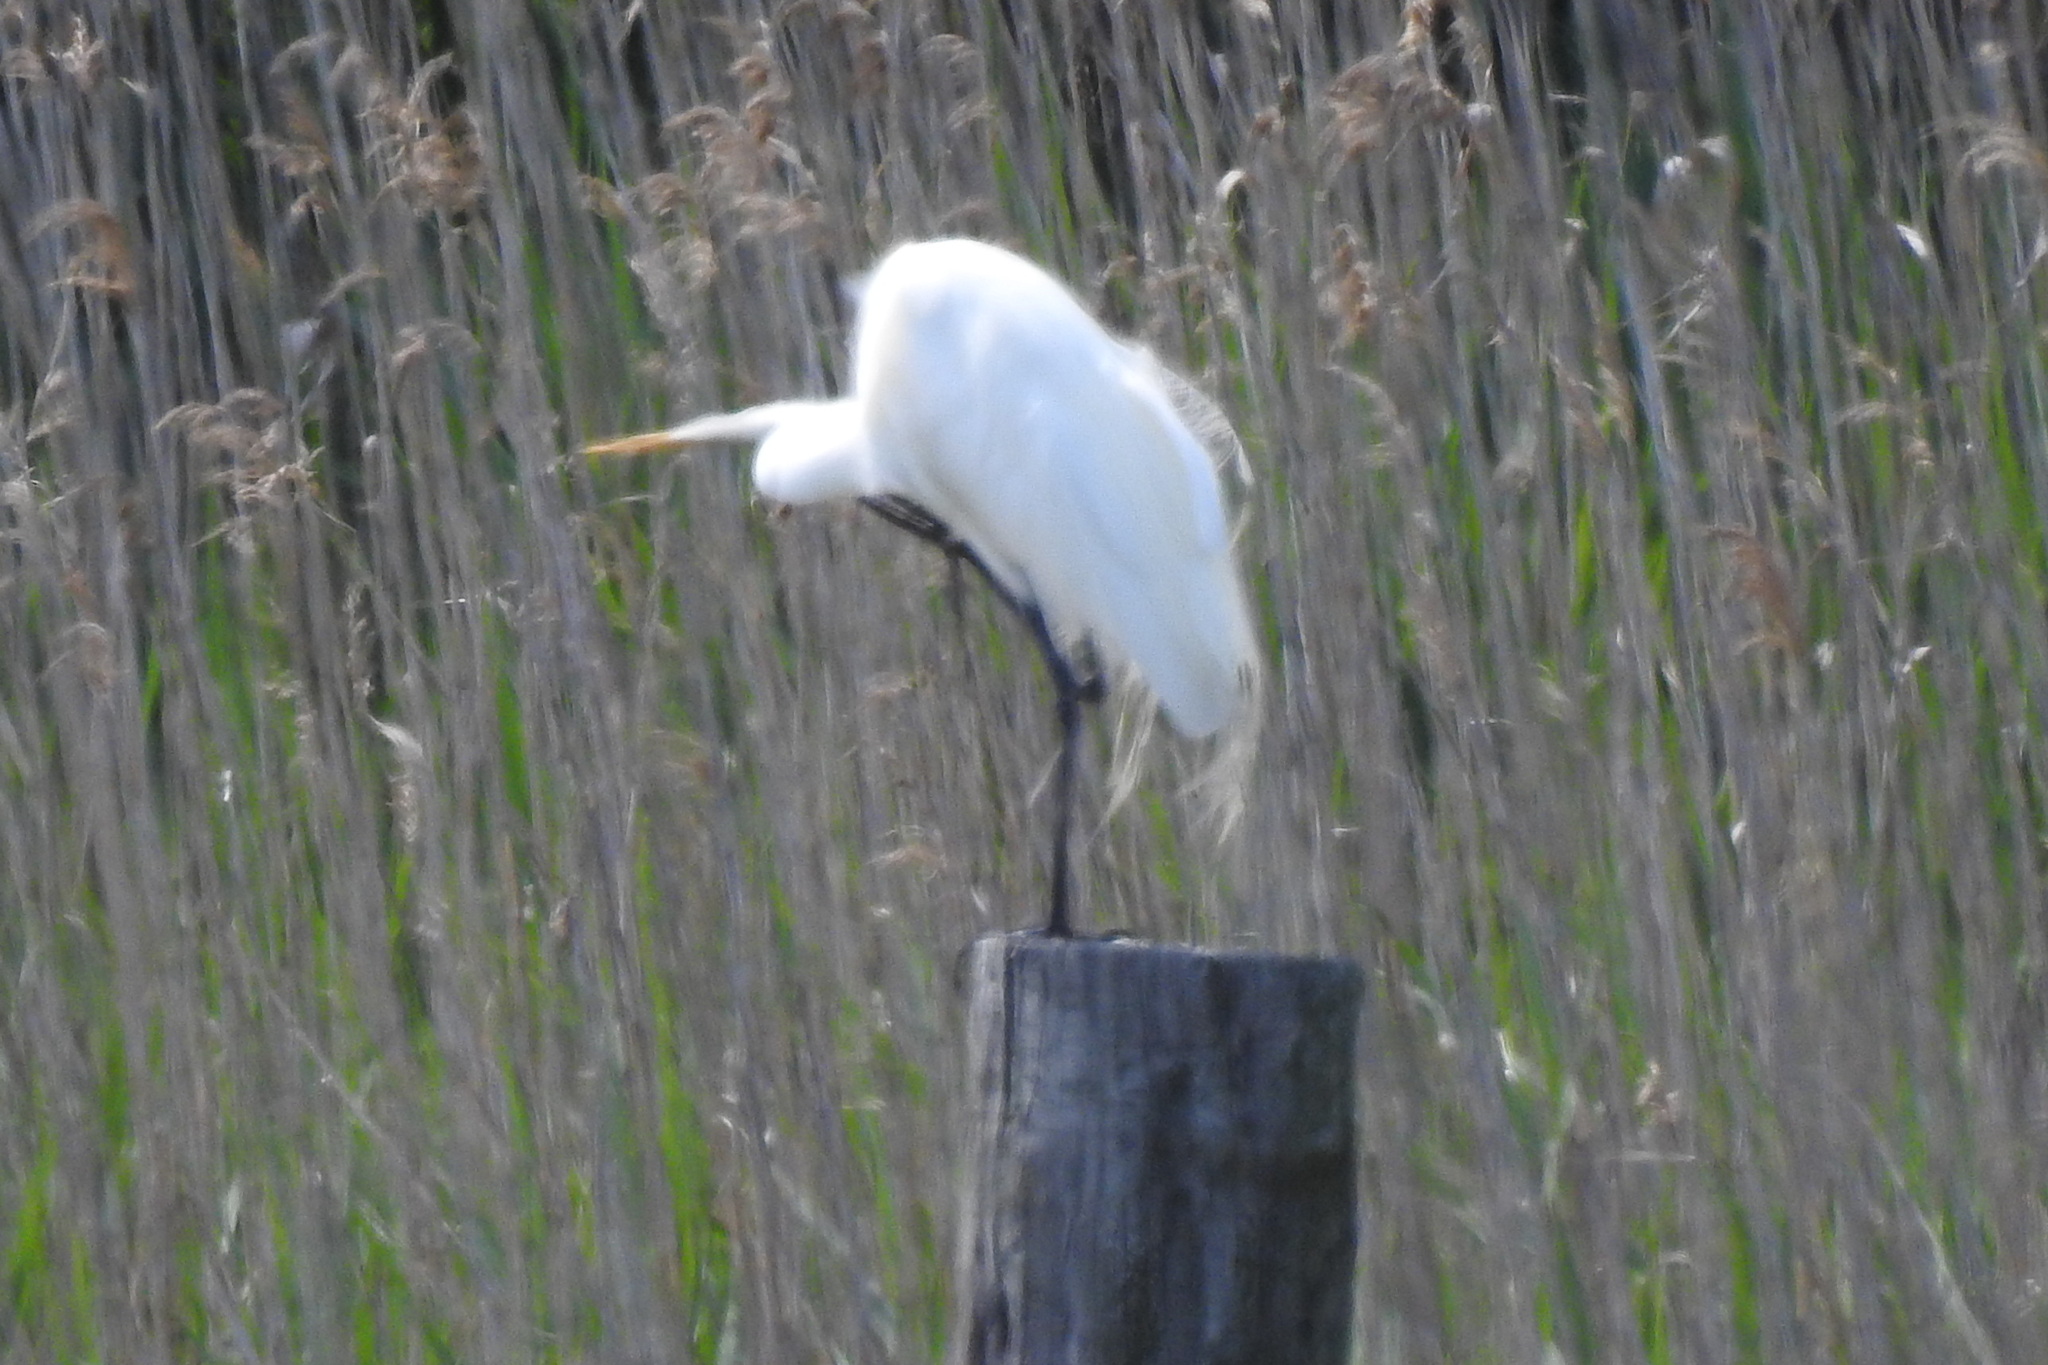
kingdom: Animalia
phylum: Chordata
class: Aves
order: Pelecaniformes
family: Ardeidae
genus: Ardea
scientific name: Ardea alba
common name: Great egret
